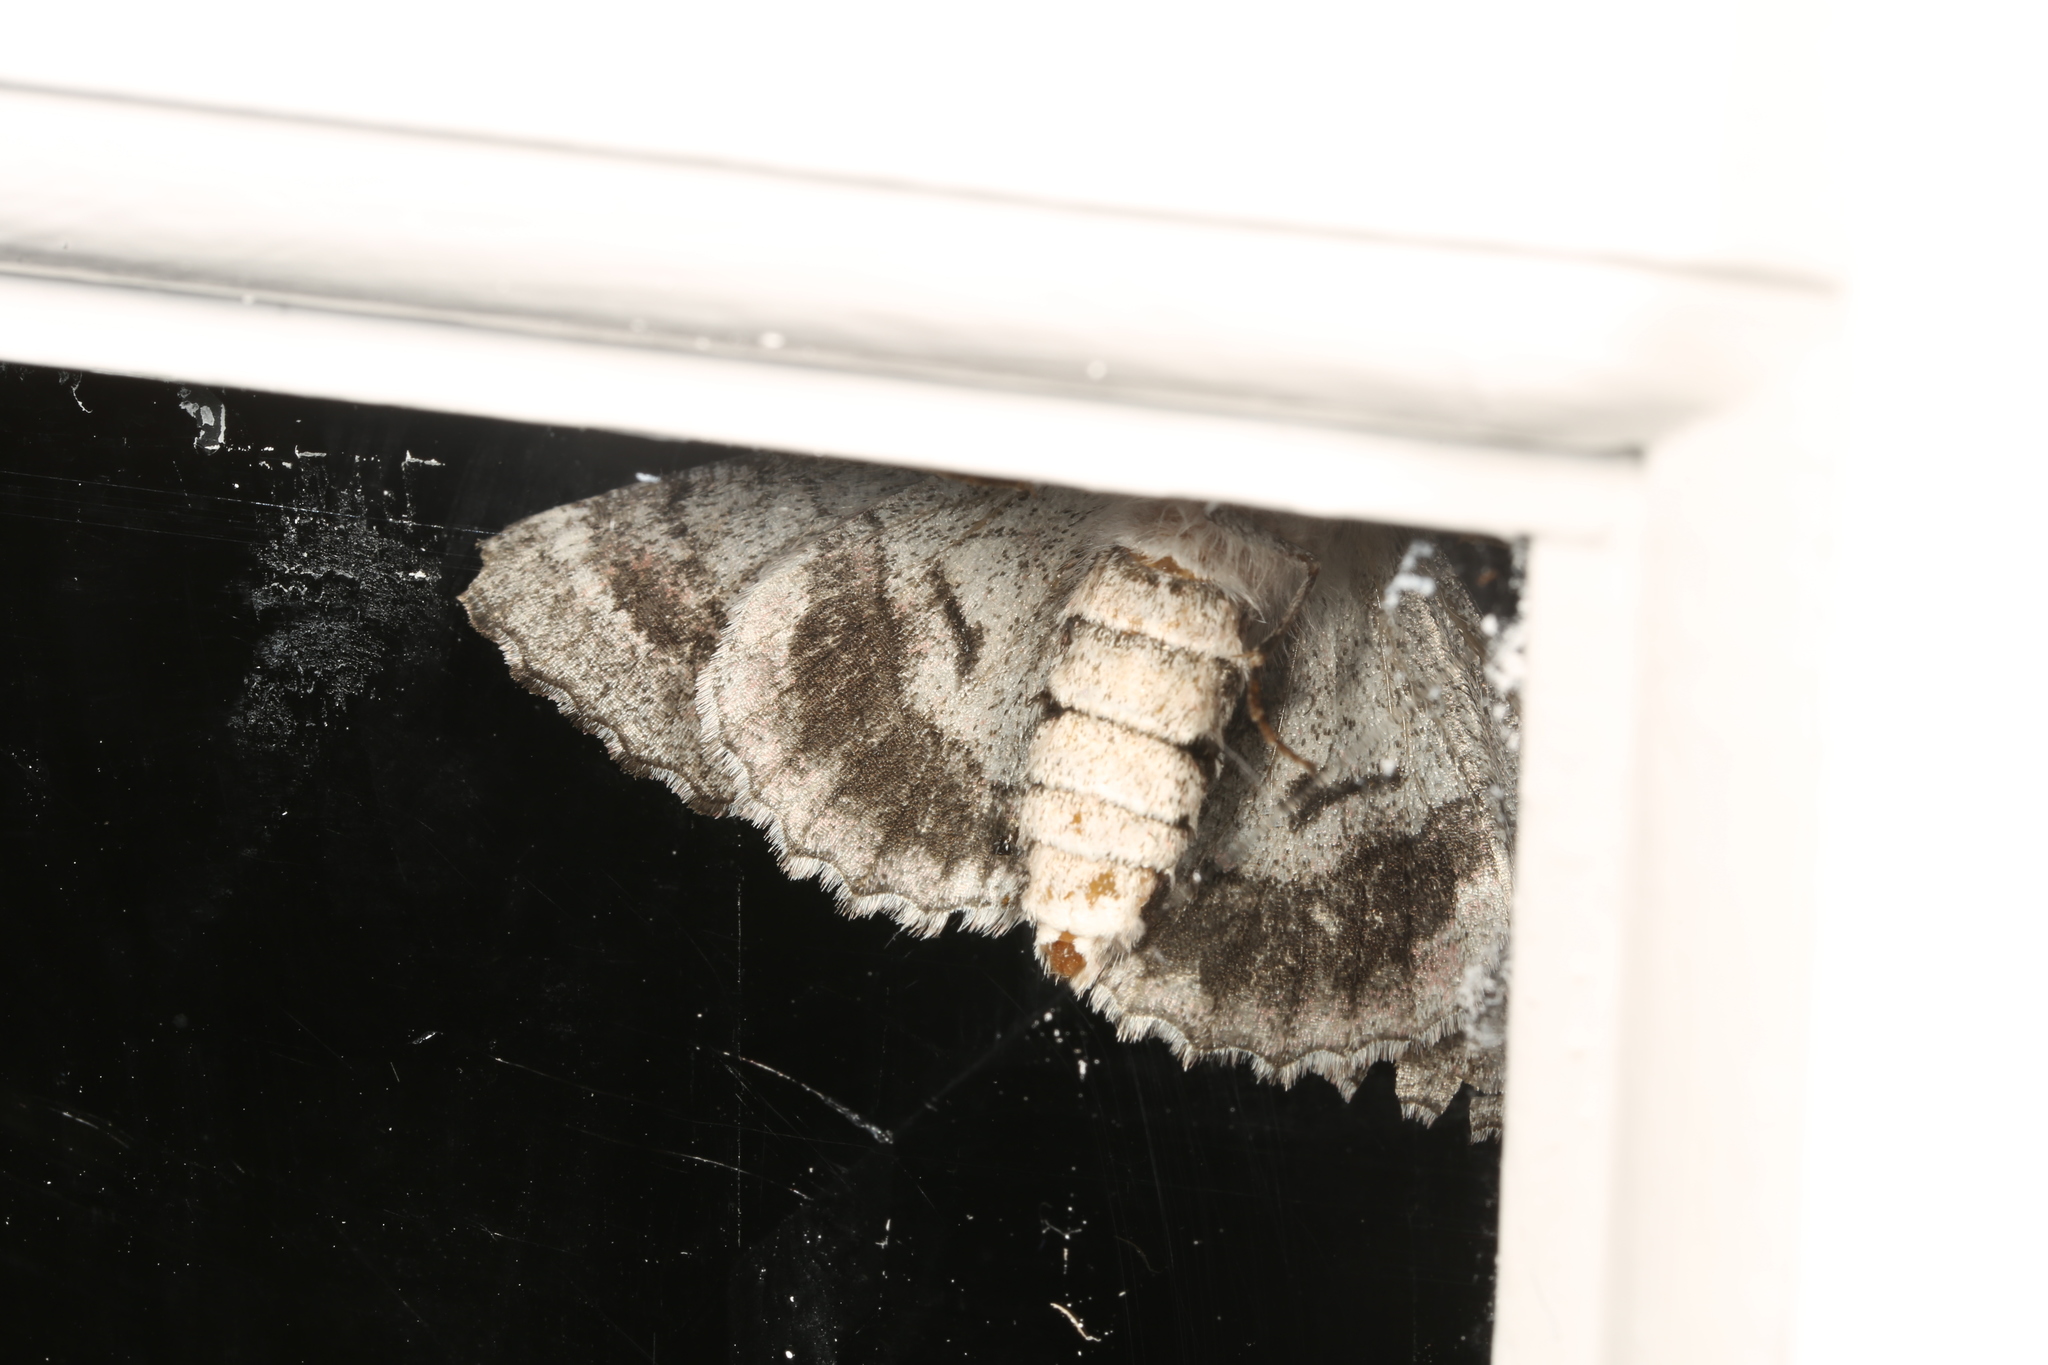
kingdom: Animalia
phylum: Arthropoda
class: Insecta
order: Lepidoptera
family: Geometridae
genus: Hypobapta
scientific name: Hypobapta diffundens
